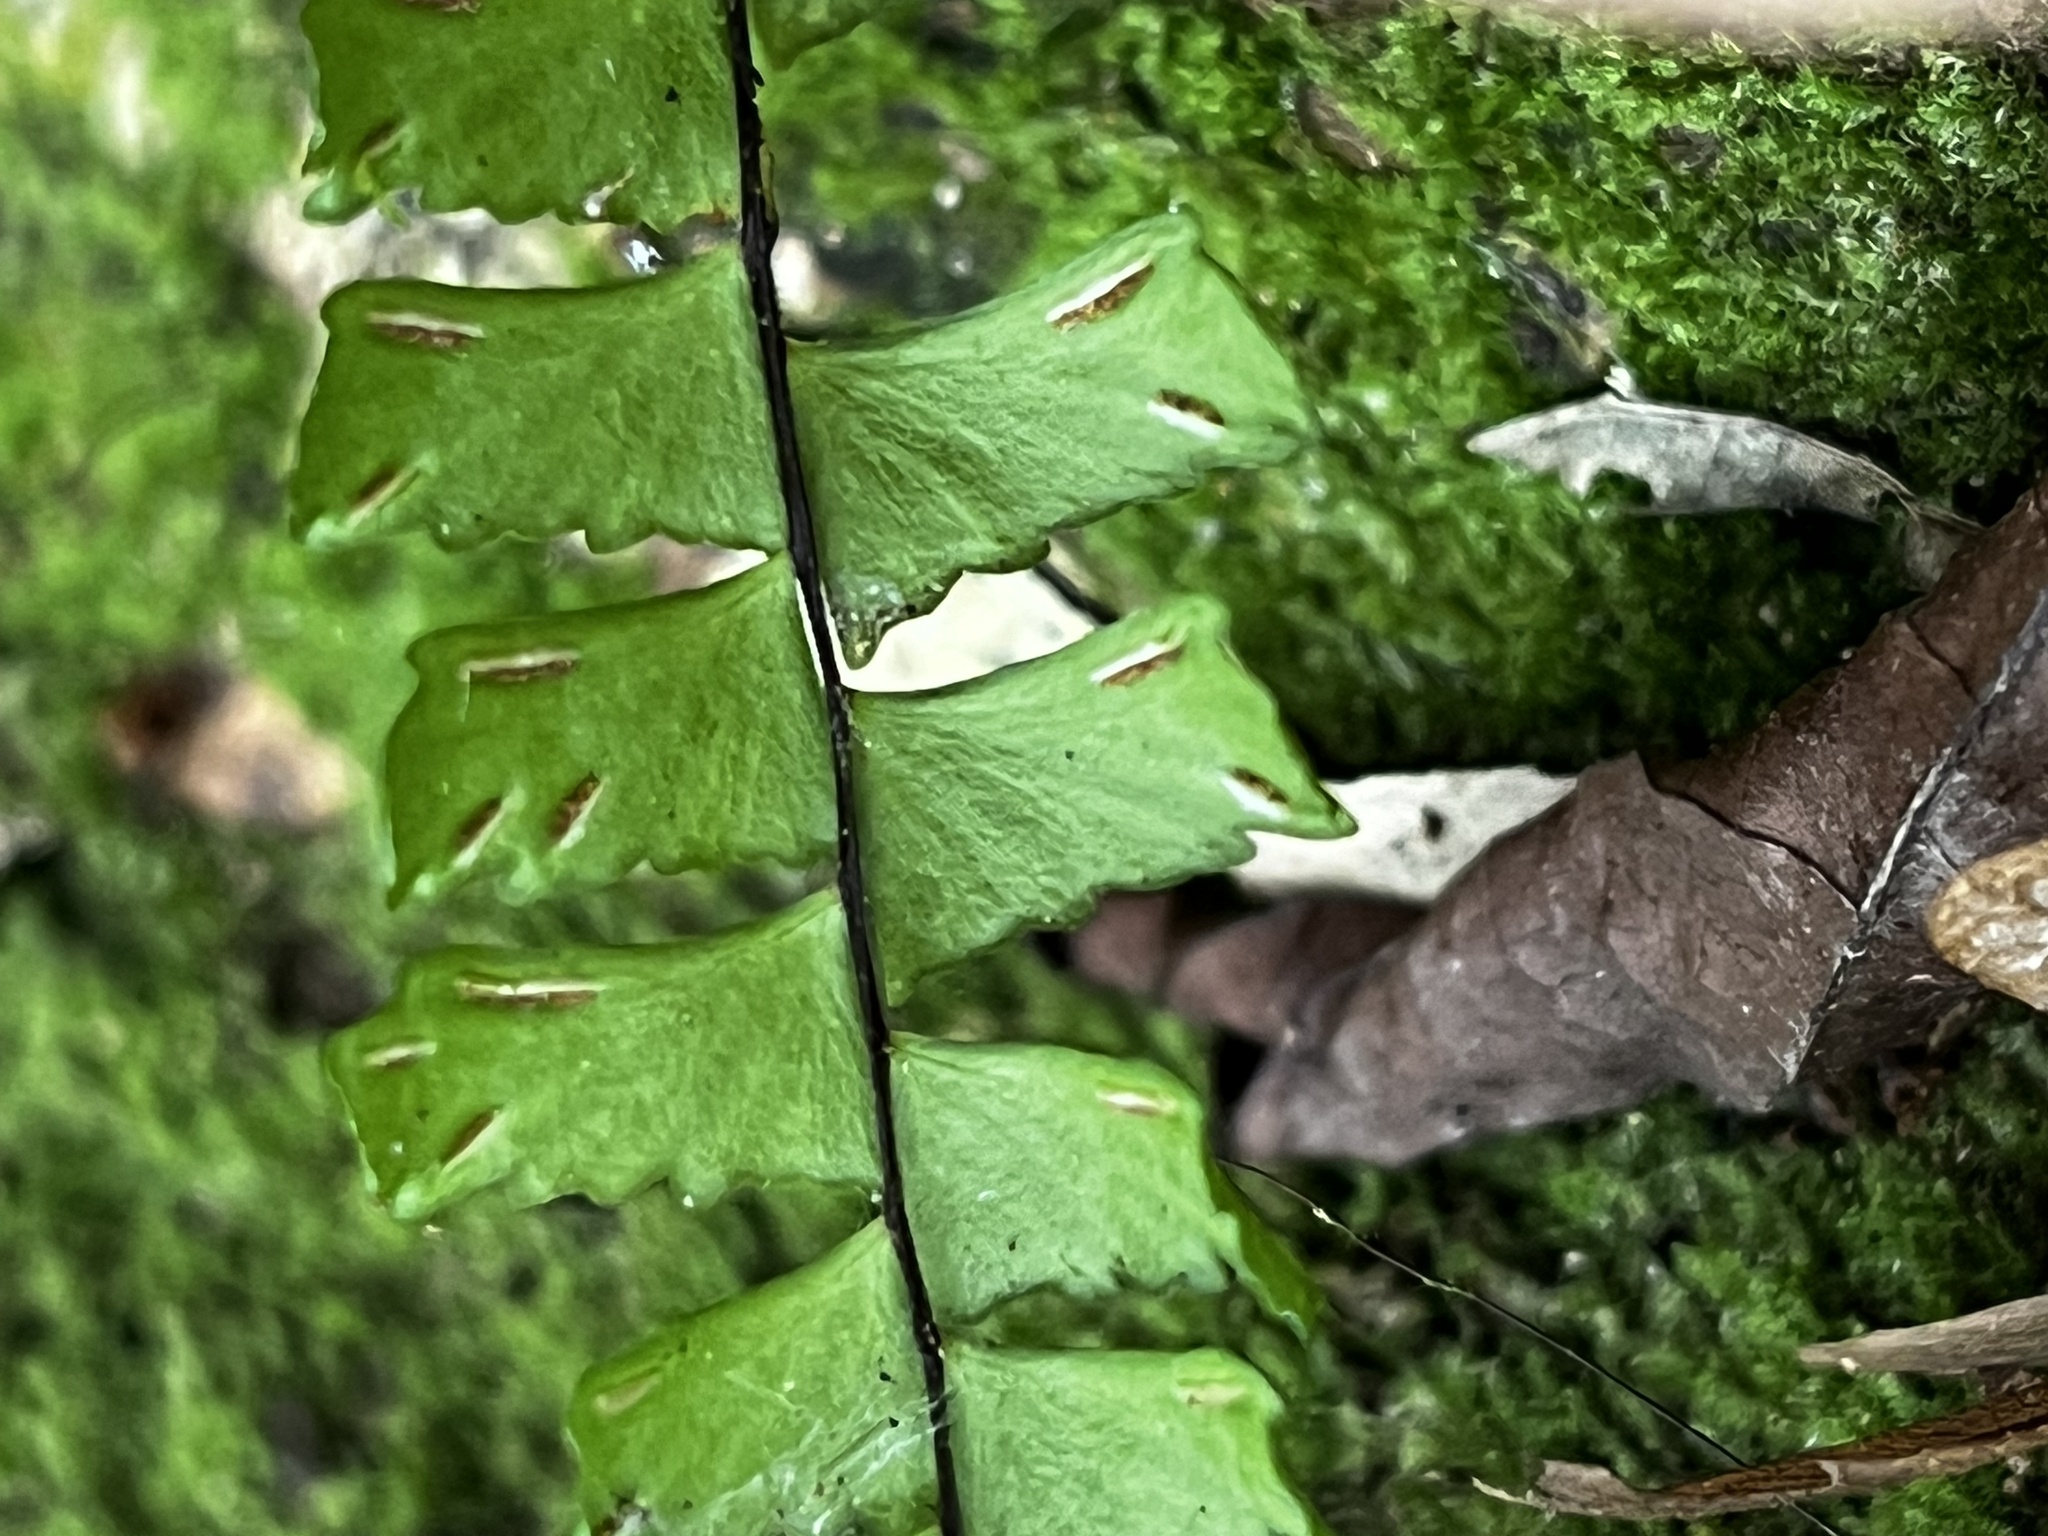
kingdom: Plantae
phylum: Tracheophyta
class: Polypodiopsida
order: Polypodiales
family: Aspleniaceae
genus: Asplenium
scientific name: Asplenium normale
